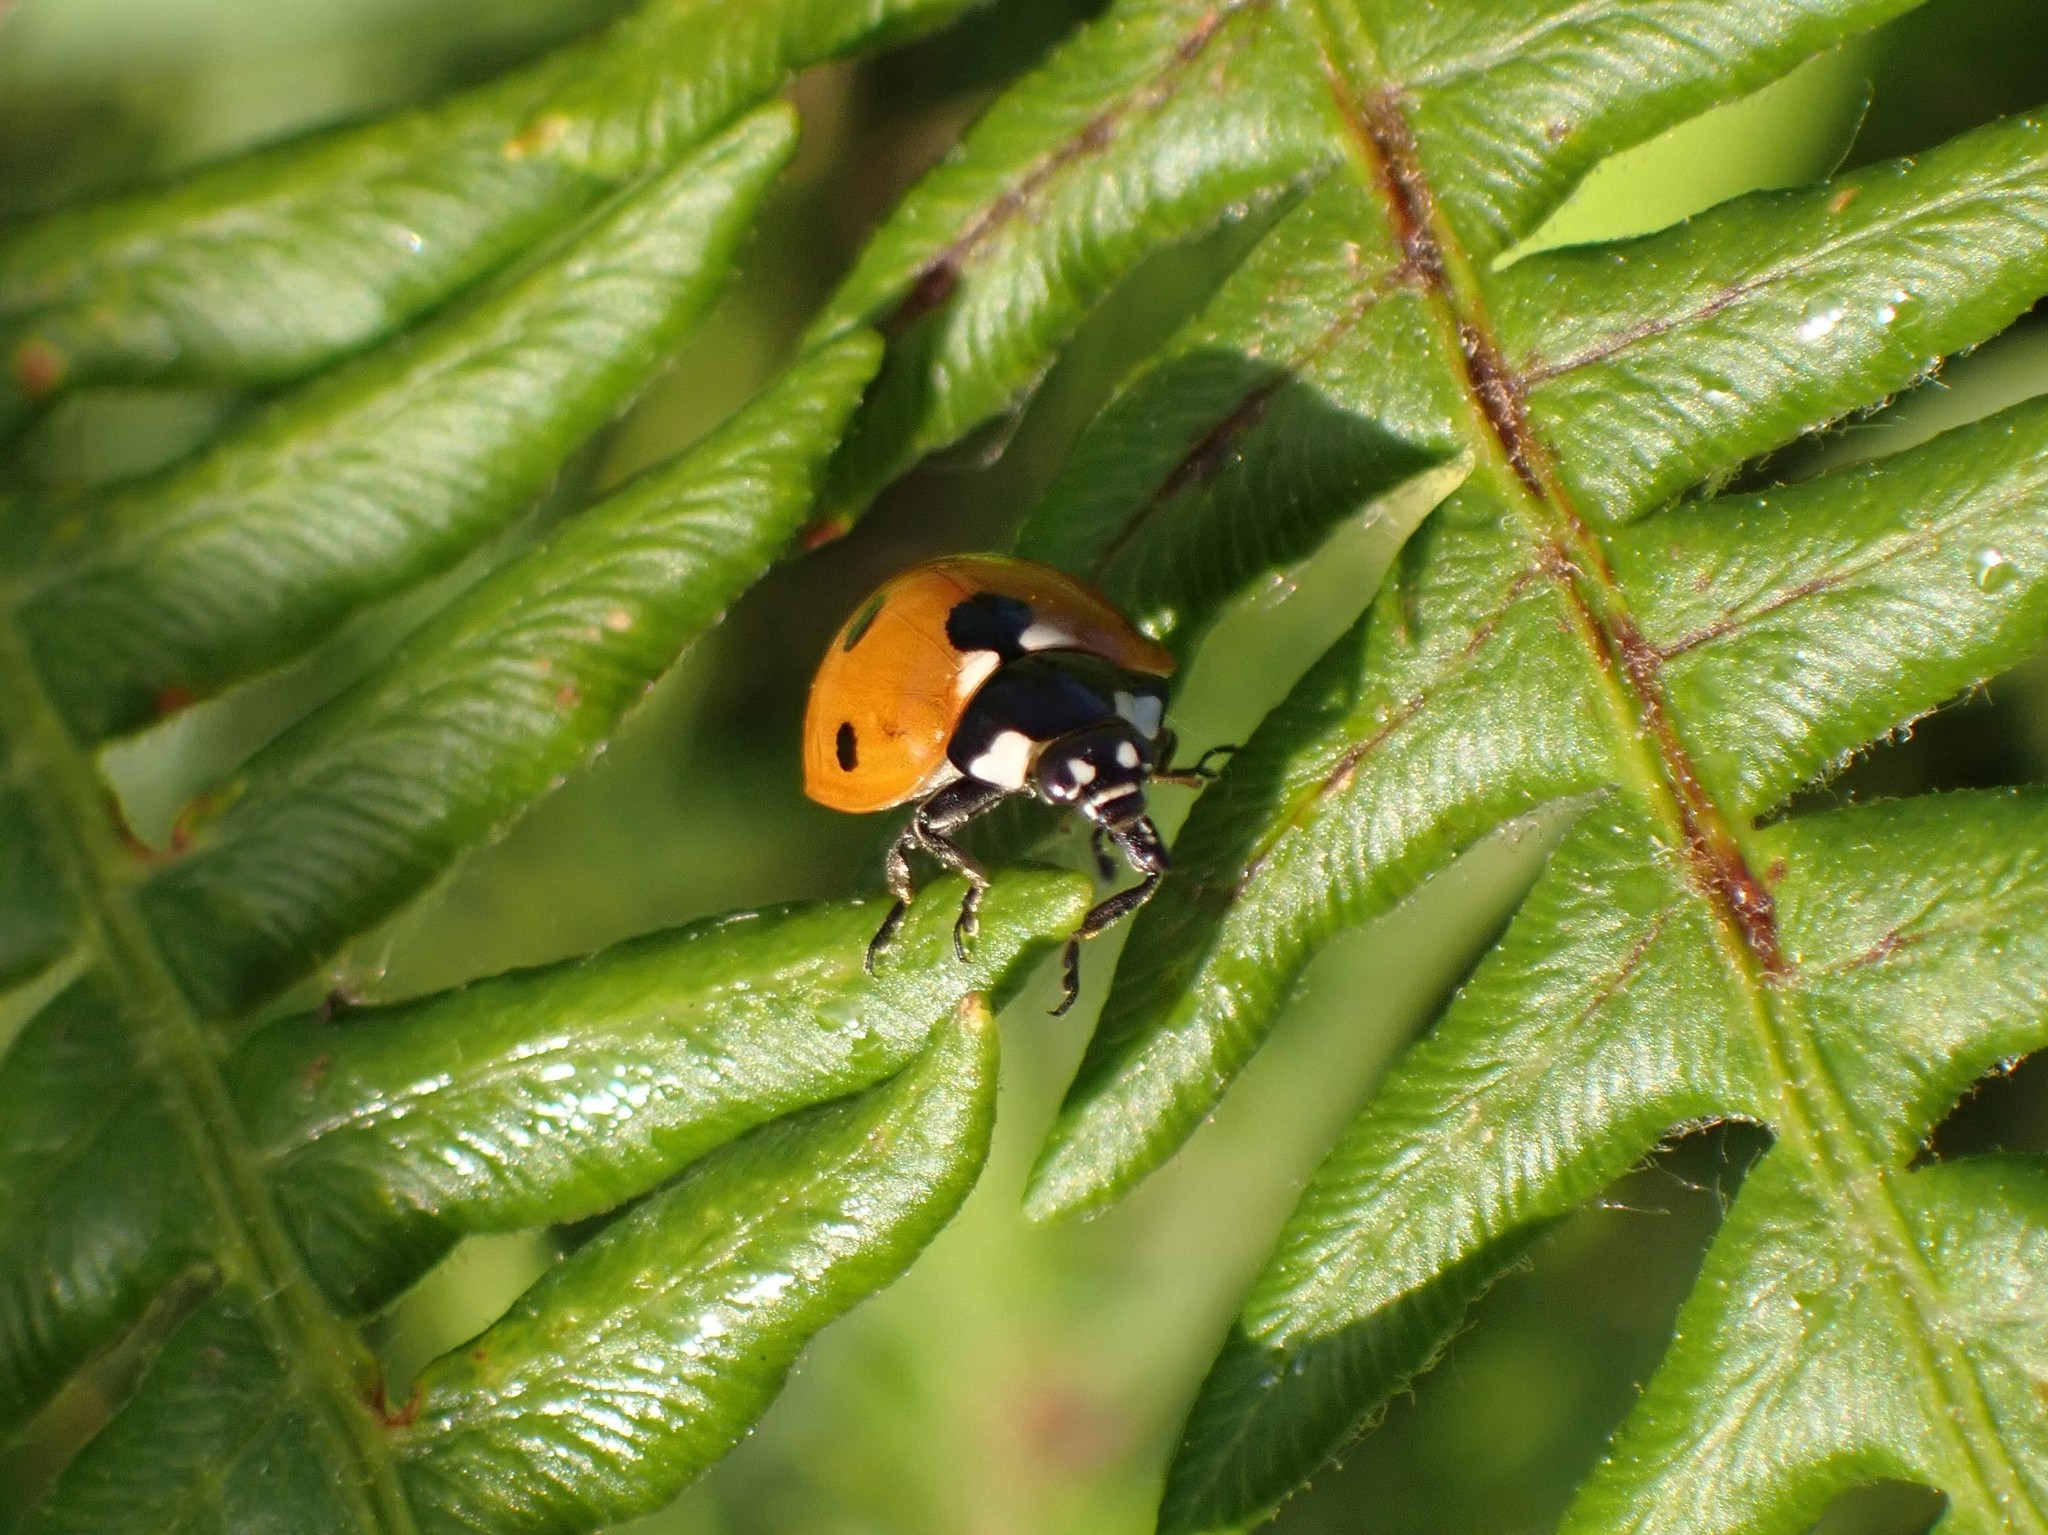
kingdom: Animalia
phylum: Arthropoda
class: Insecta
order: Coleoptera
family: Coccinellidae
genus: Coccinella
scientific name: Coccinella septempunctata
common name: Sevenspotted lady beetle
